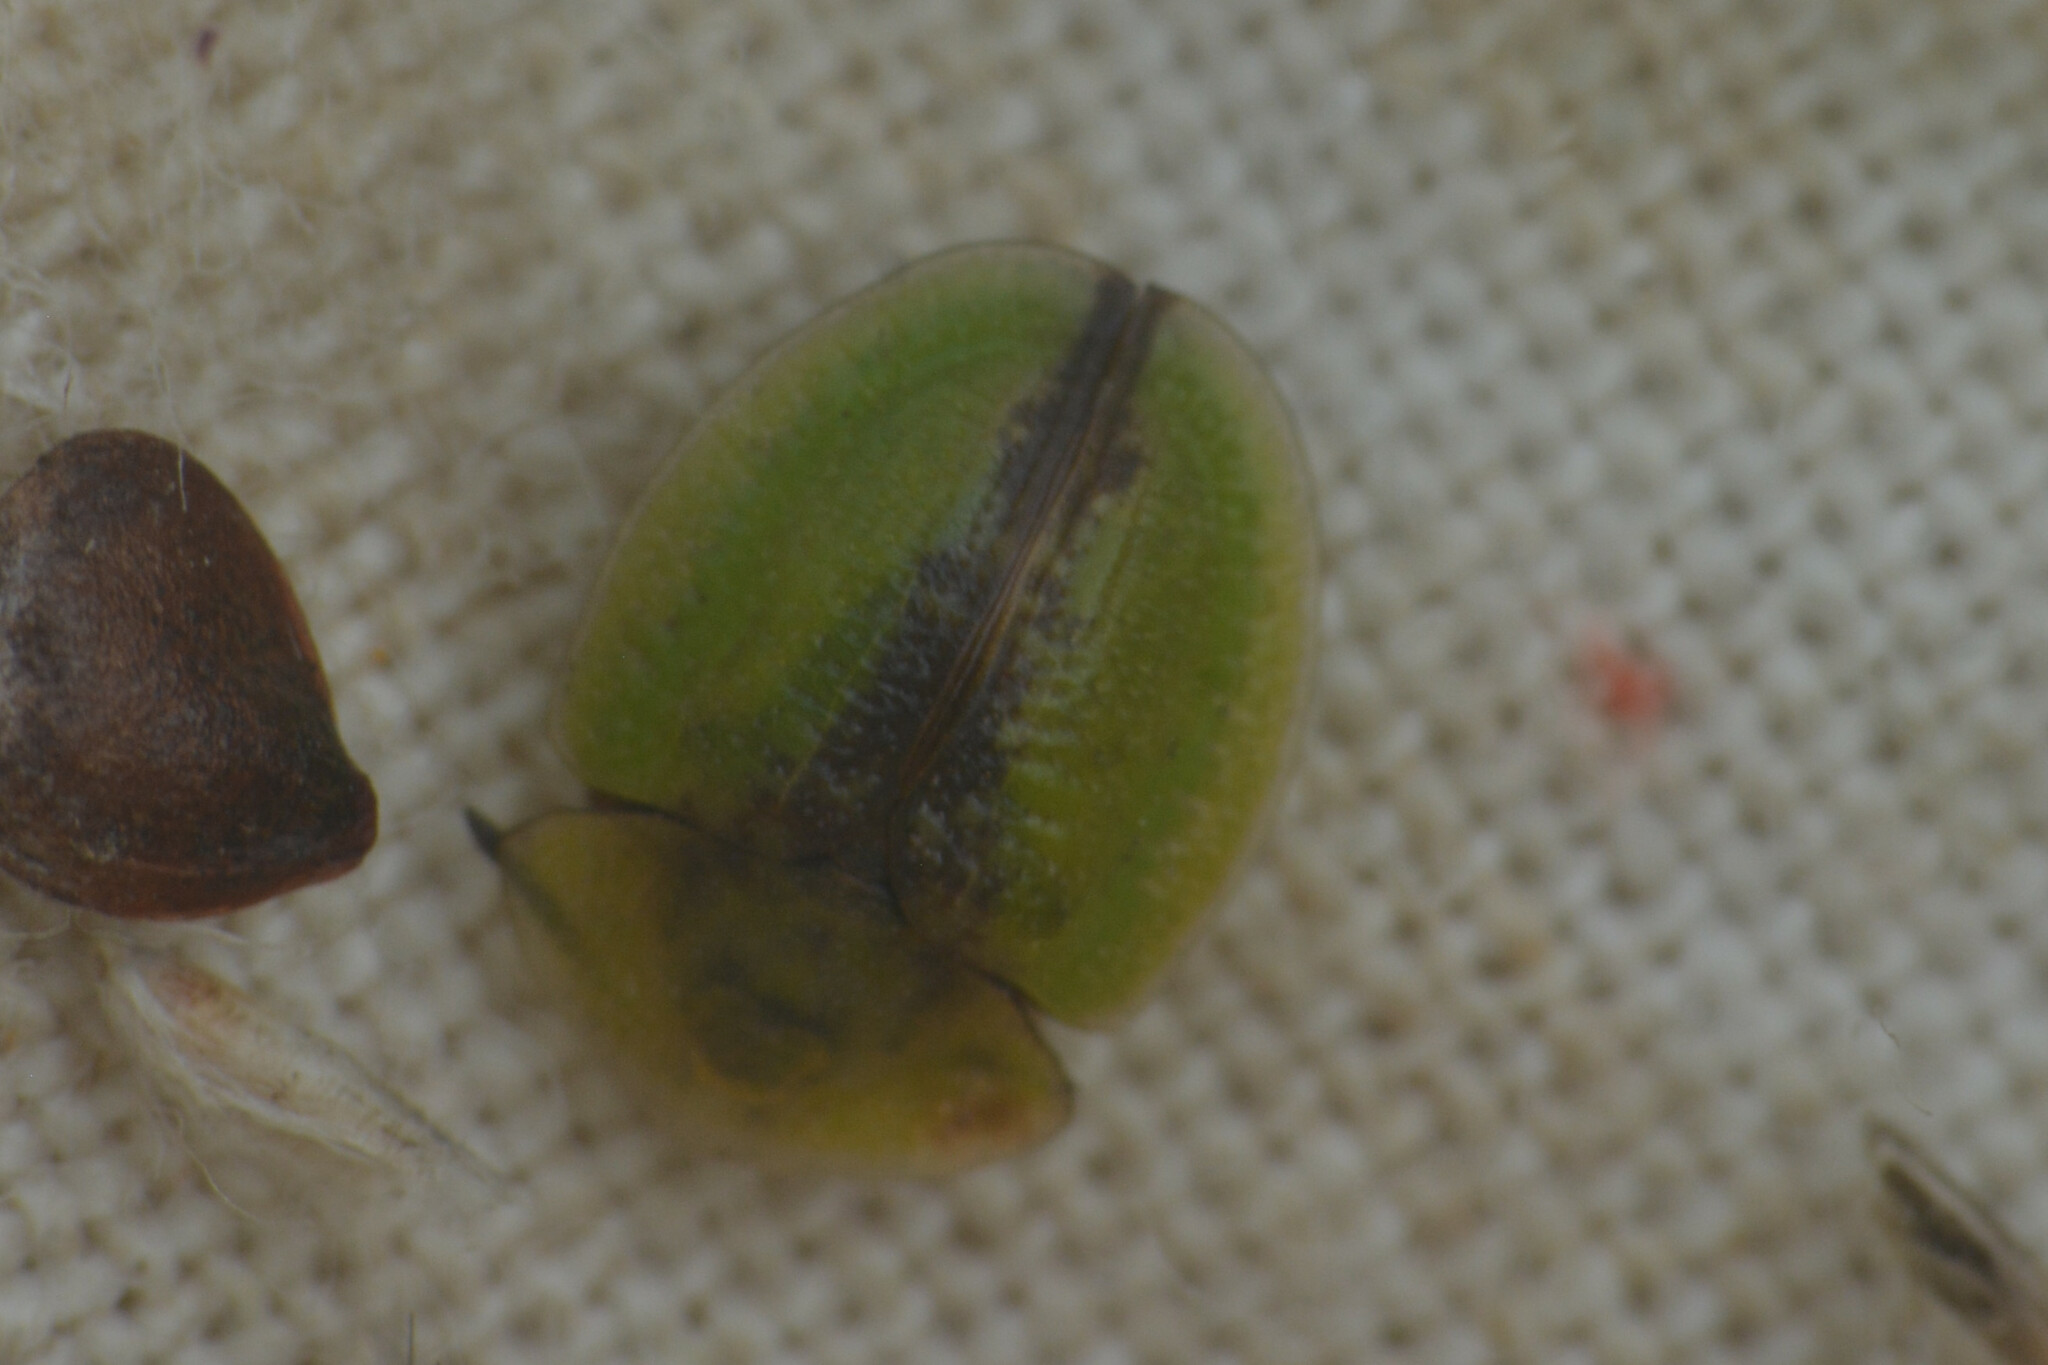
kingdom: Animalia
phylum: Arthropoda
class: Insecta
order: Coleoptera
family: Chrysomelidae
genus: Cassida
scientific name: Cassida vibex
